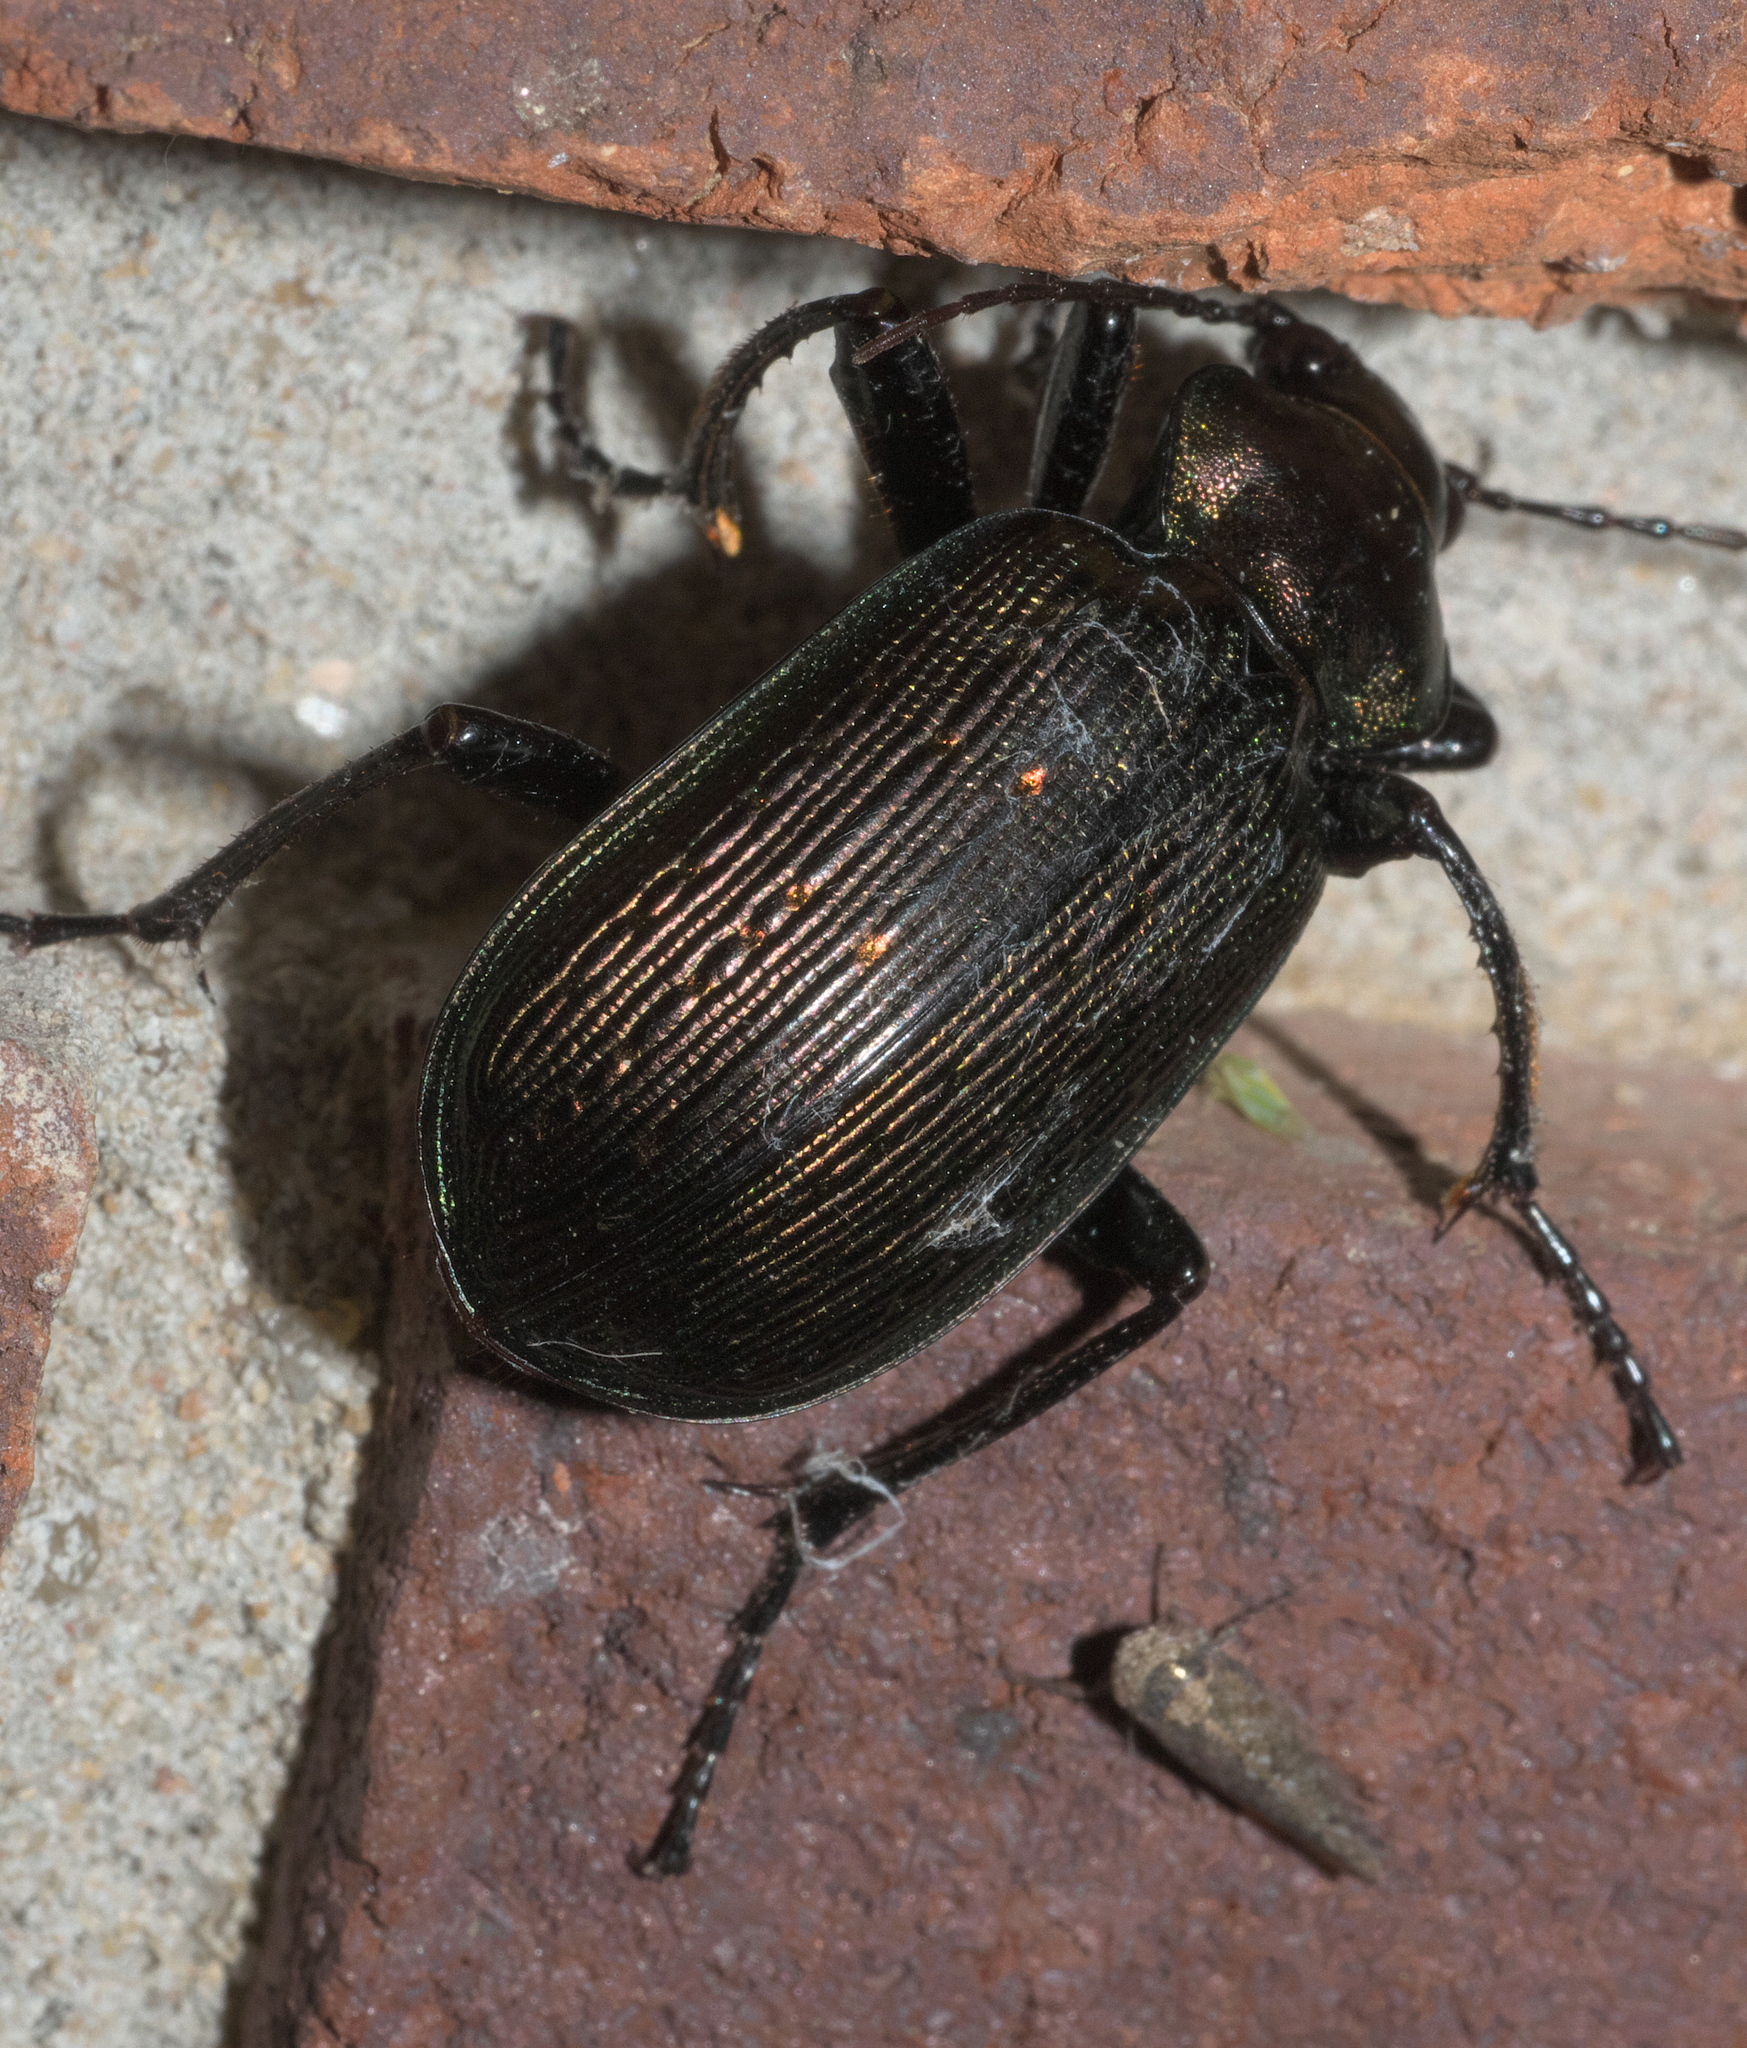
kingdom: Animalia
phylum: Arthropoda
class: Insecta
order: Coleoptera
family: Carabidae
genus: Calosoma
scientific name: Calosoma sayi
